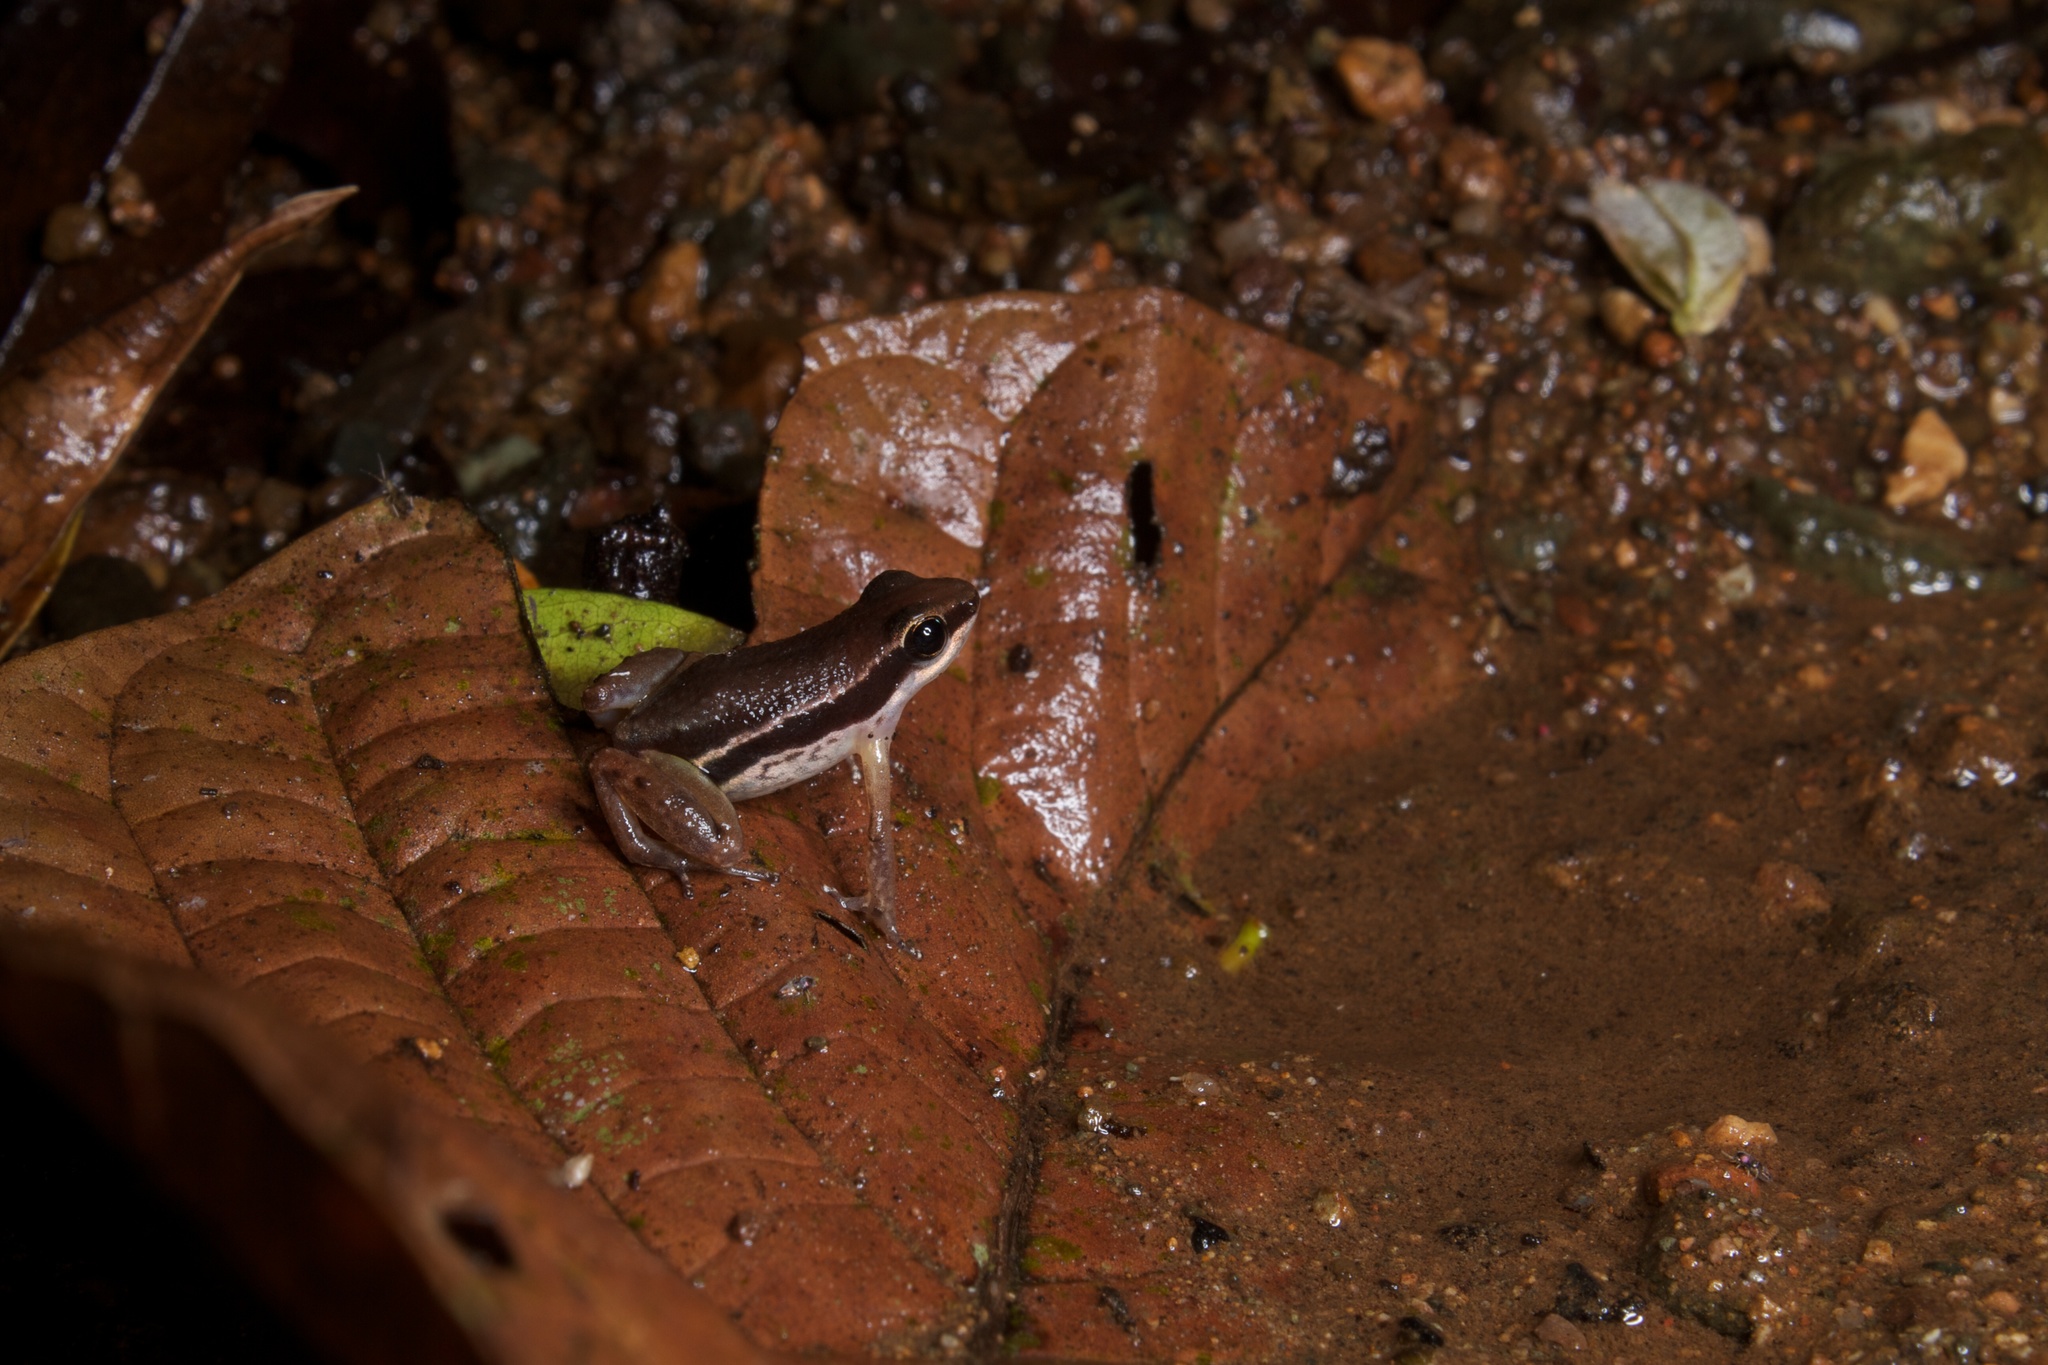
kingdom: Animalia
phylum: Chordata
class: Amphibia
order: Anura
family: Dendrobatidae
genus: Silverstoneia
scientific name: Silverstoneia flotator
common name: Rainforest rocket frog
